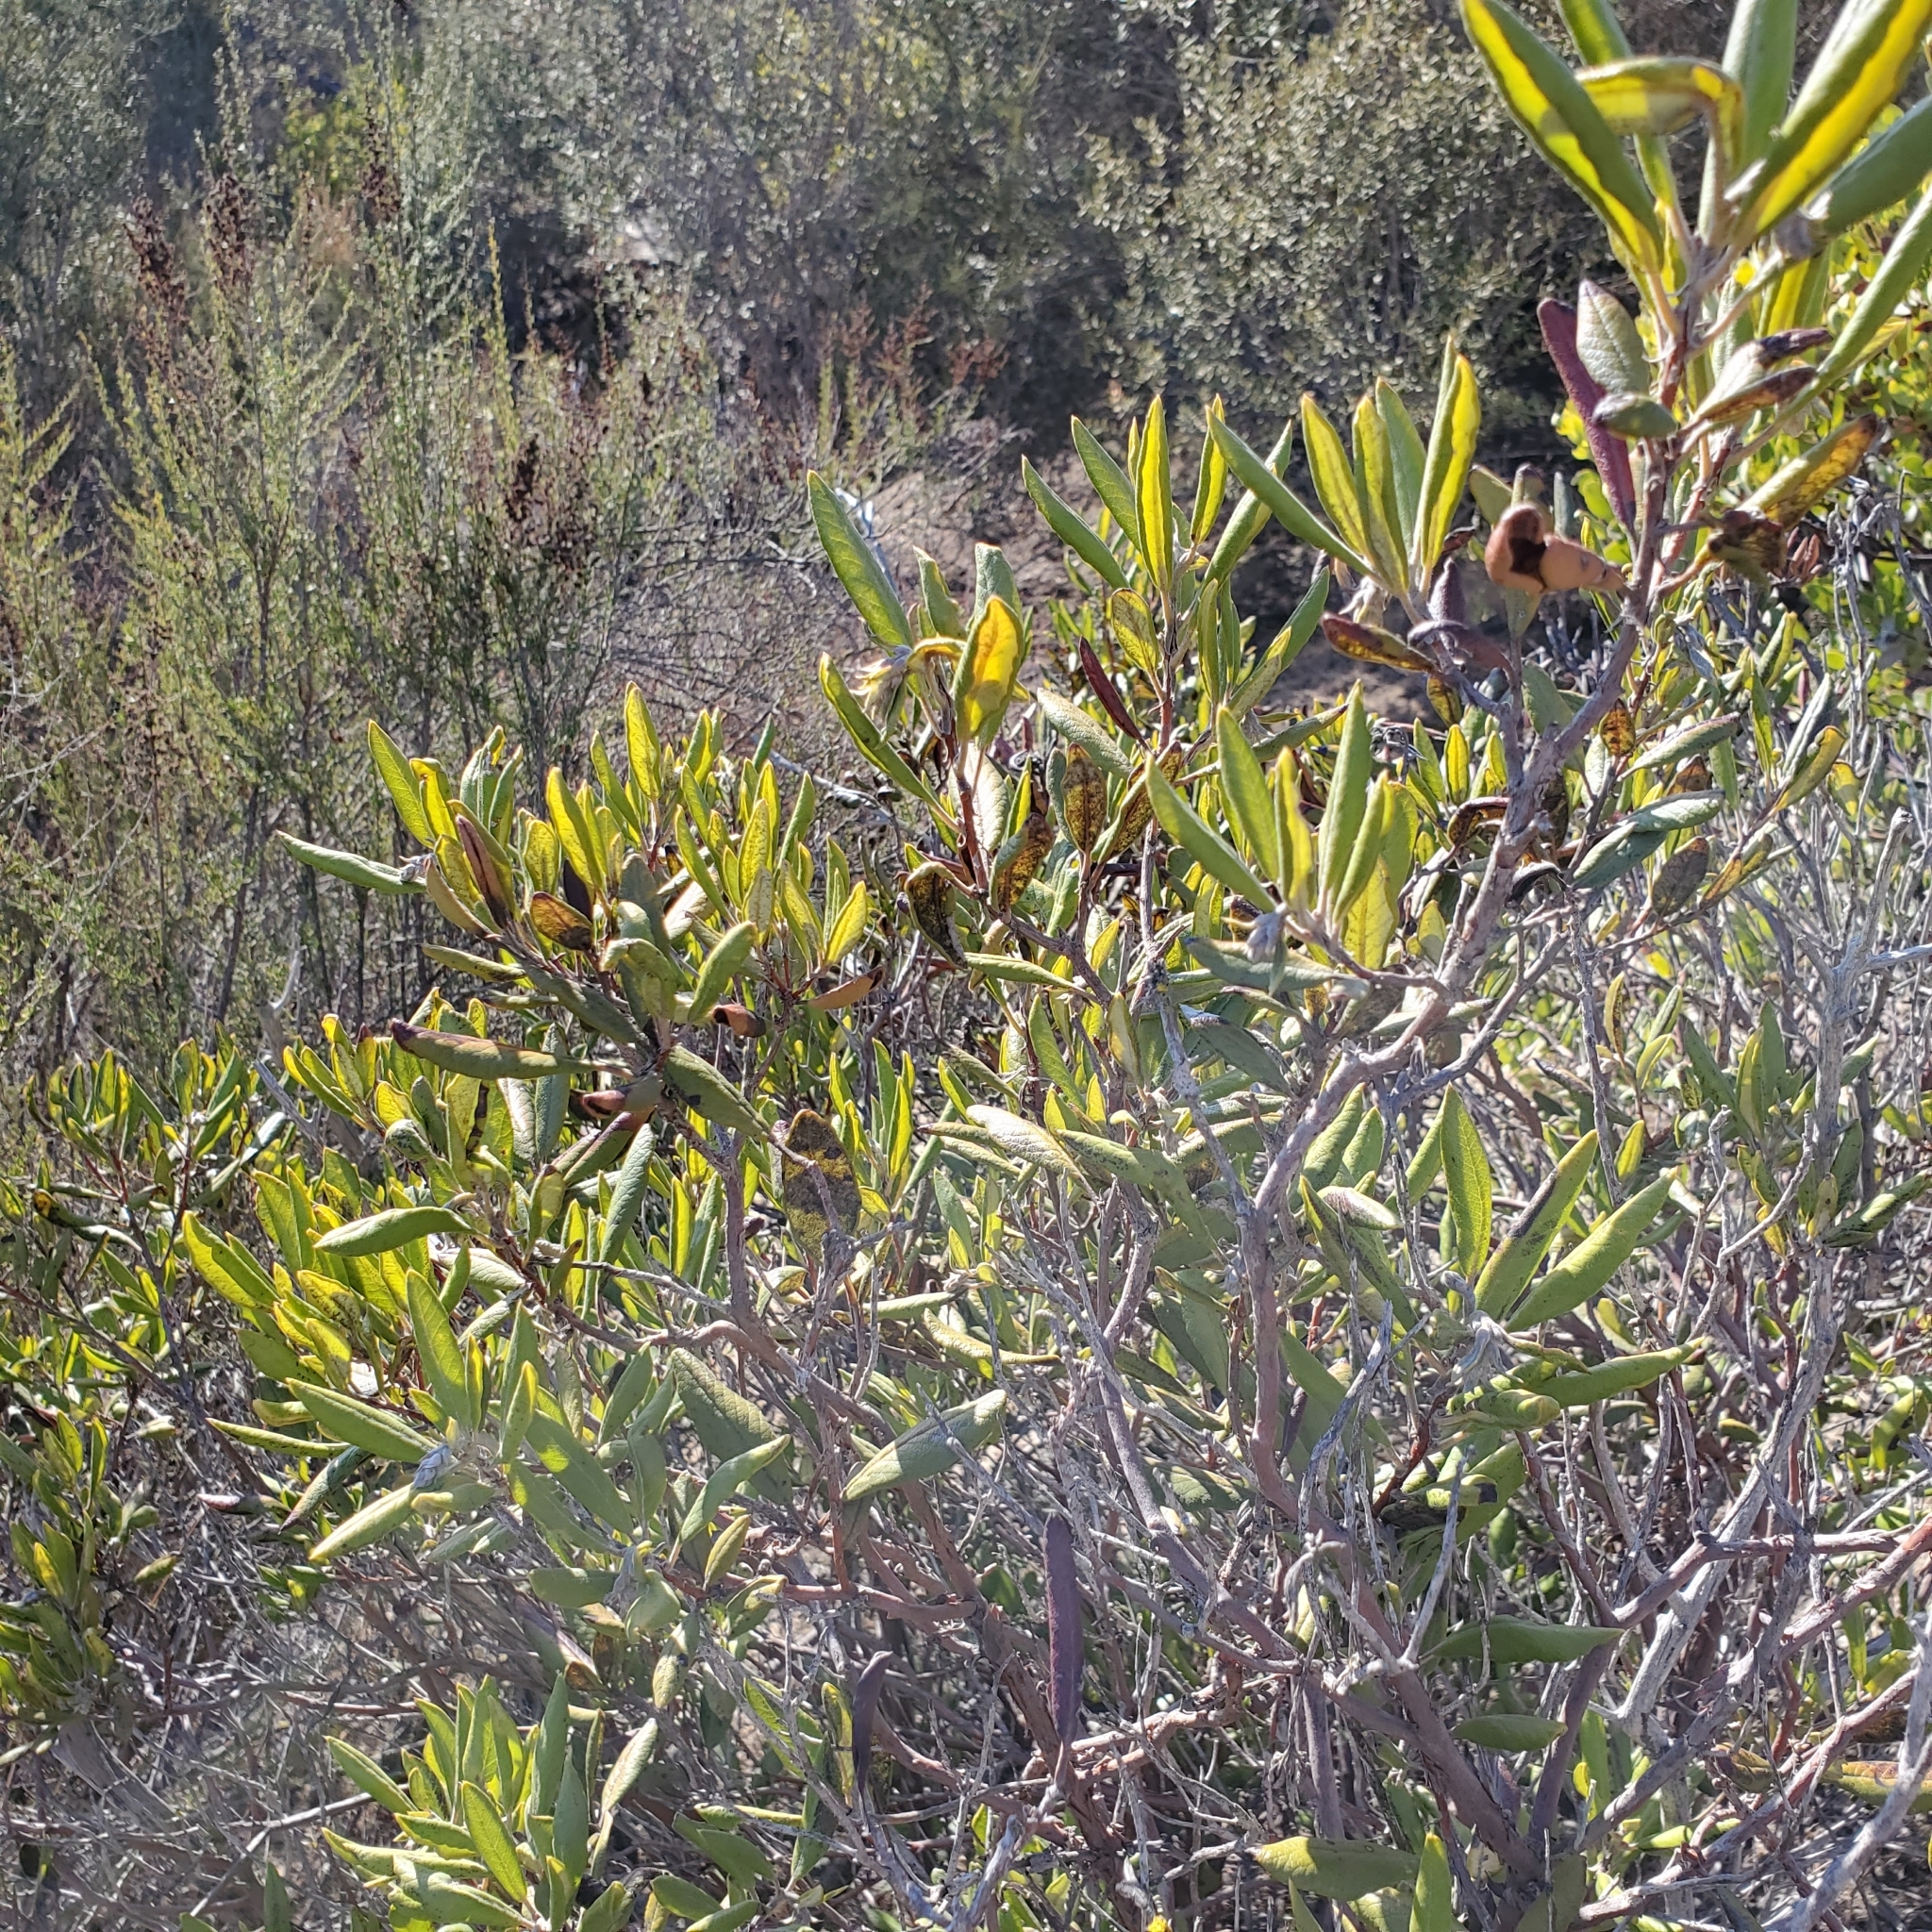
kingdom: Plantae
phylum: Tracheophyta
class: Magnoliopsida
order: Ericales
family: Ericaceae
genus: Arctostaphylos
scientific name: Arctostaphylos bicolor
